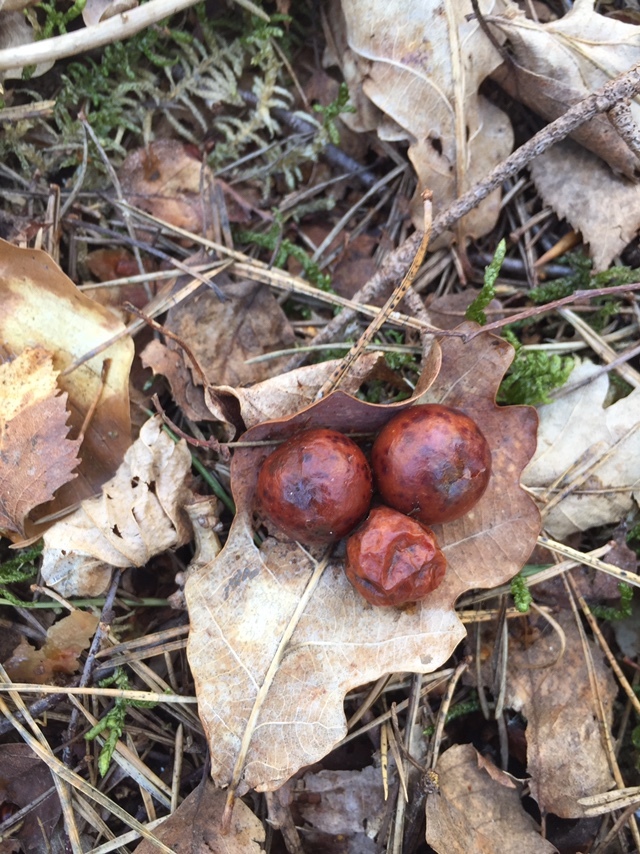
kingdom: Animalia
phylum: Arthropoda
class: Insecta
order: Hymenoptera
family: Cynipidae
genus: Cynips
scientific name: Cynips quercusfolii
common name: Cherry gall
